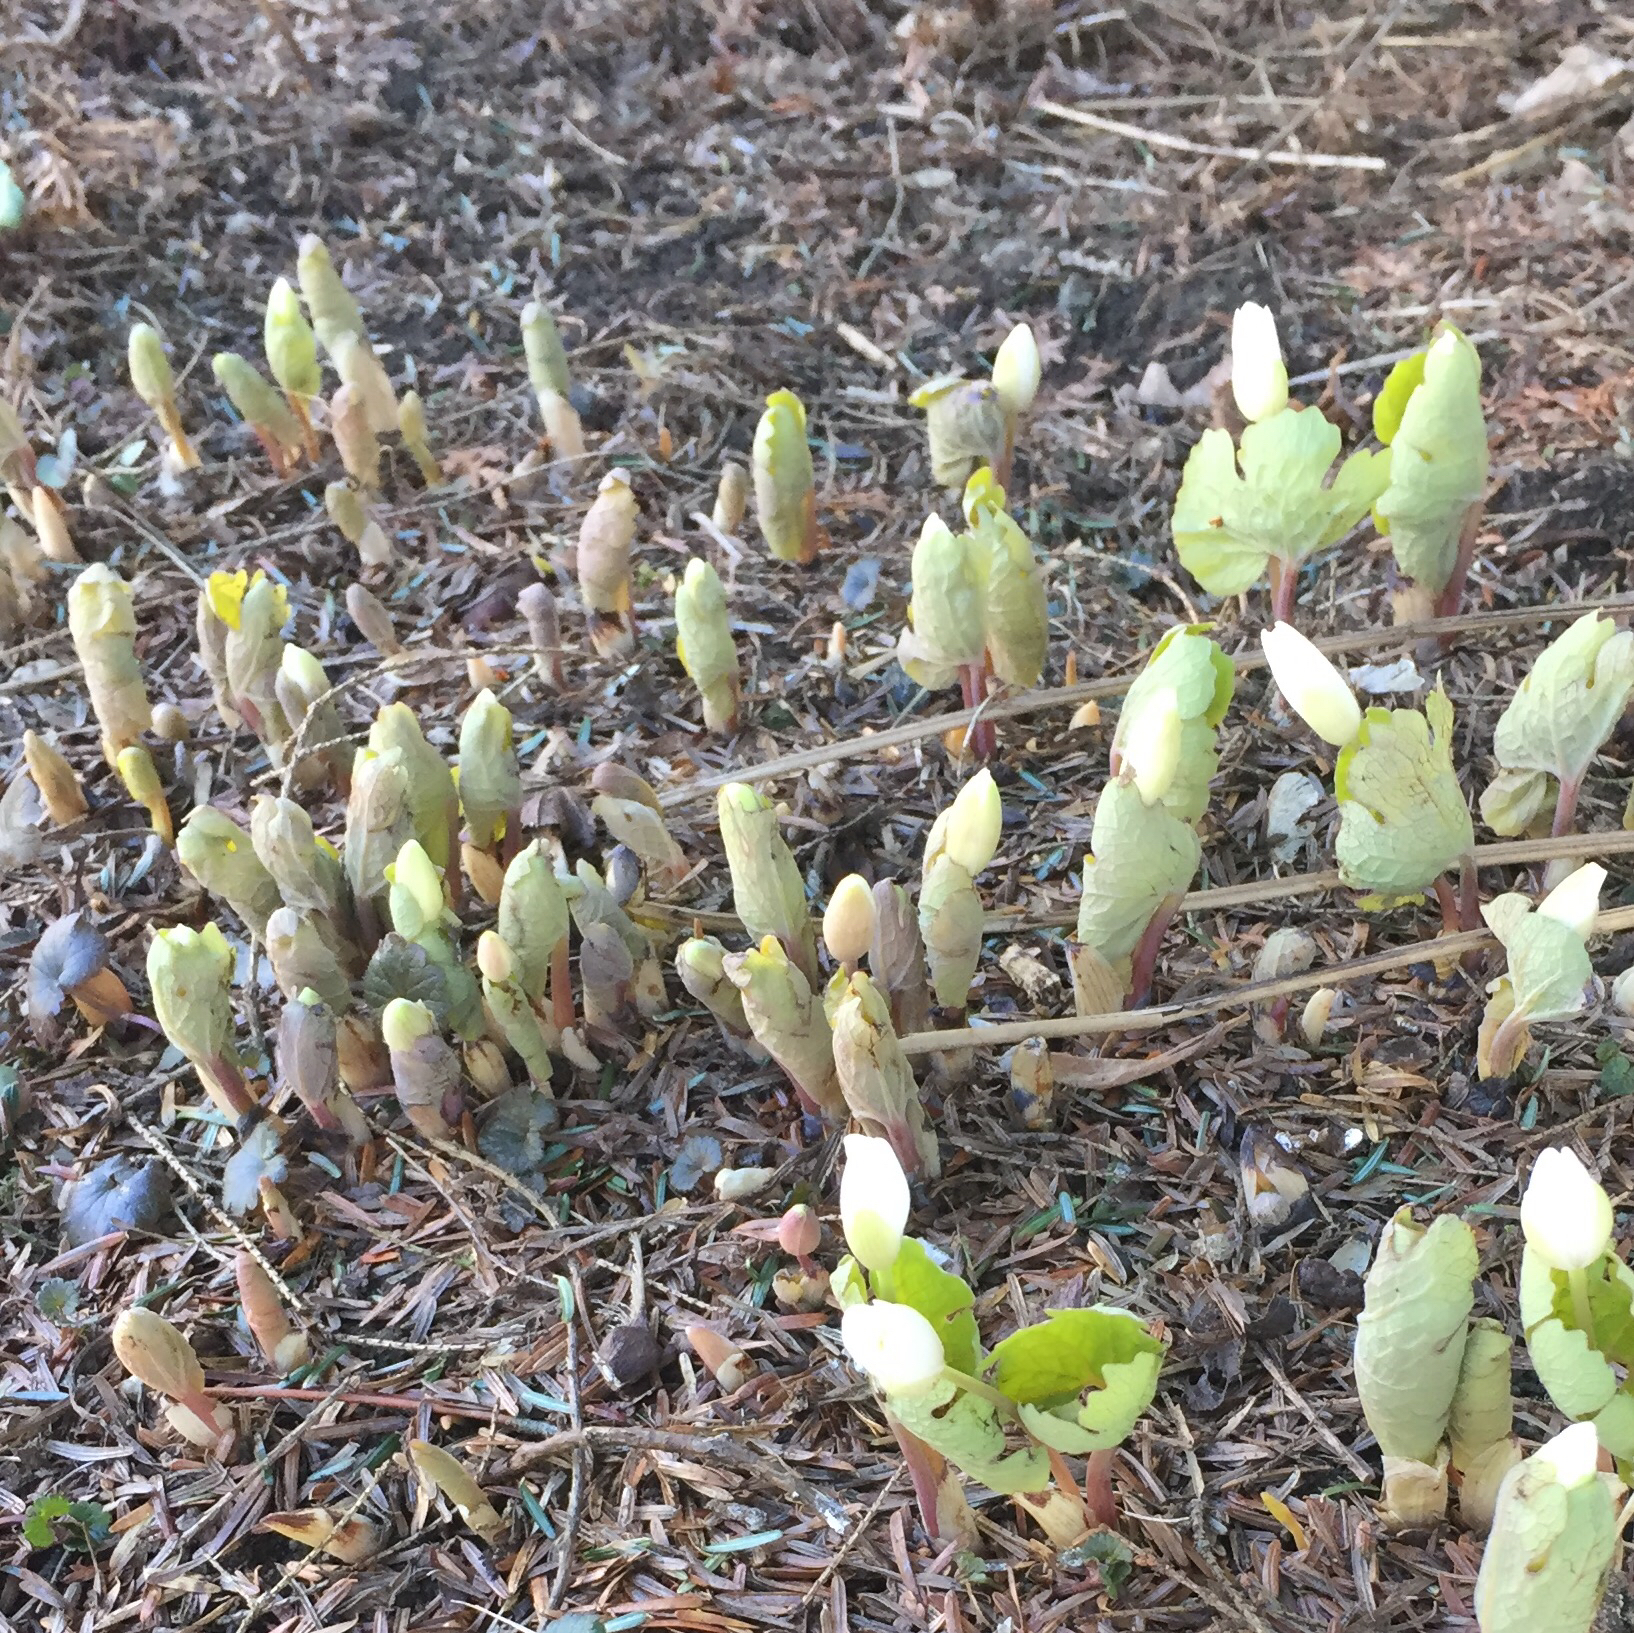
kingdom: Plantae
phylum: Tracheophyta
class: Magnoliopsida
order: Ranunculales
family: Papaveraceae
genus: Sanguinaria
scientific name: Sanguinaria canadensis
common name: Bloodroot
